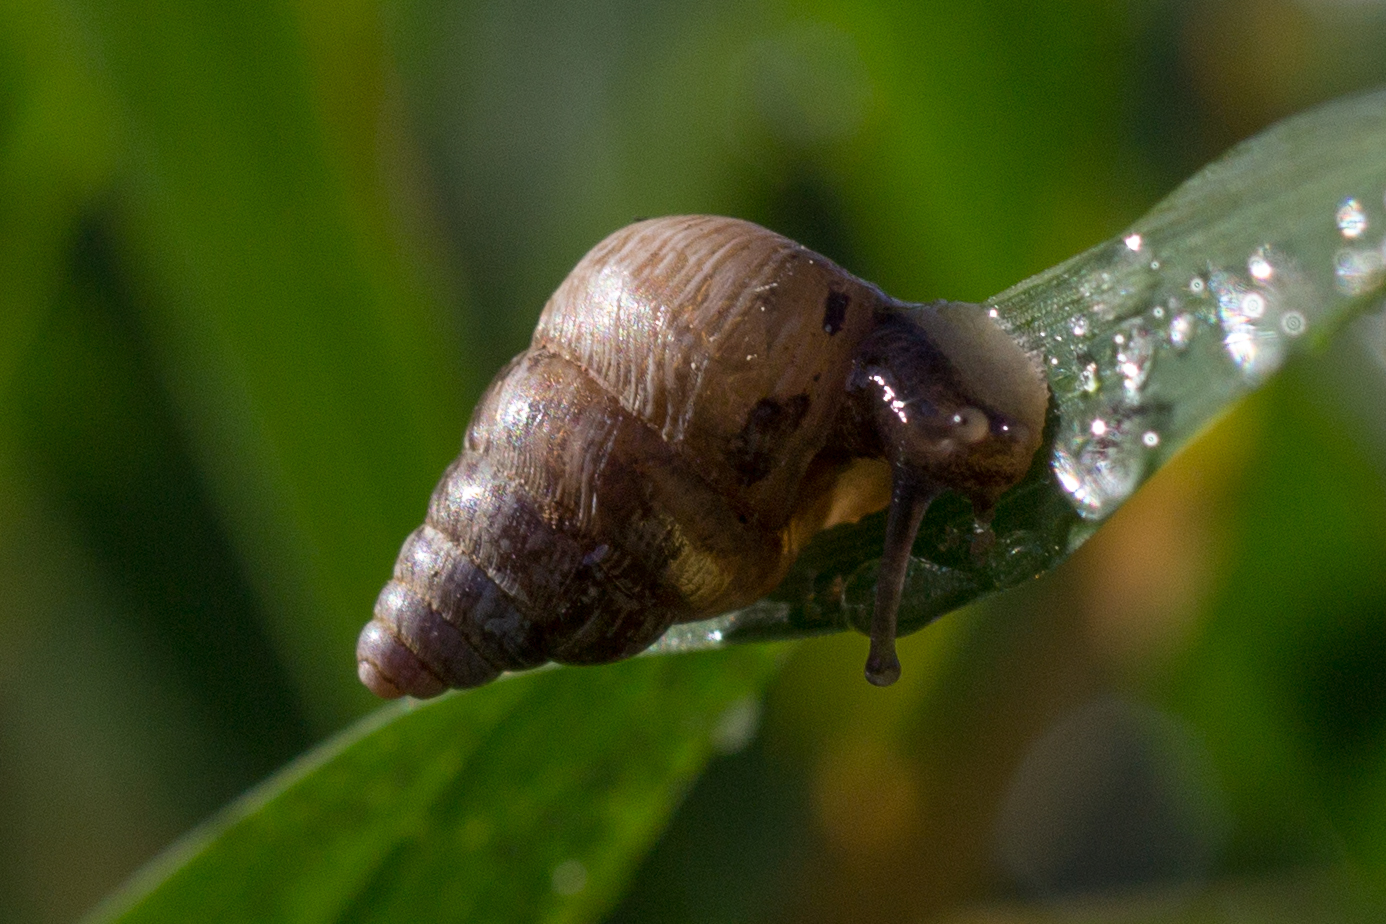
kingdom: Animalia
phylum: Mollusca
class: Gastropoda
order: Stylommatophora
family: Geomitridae
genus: Cochlicella
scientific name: Cochlicella barbara
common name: Potbellied helicellid
